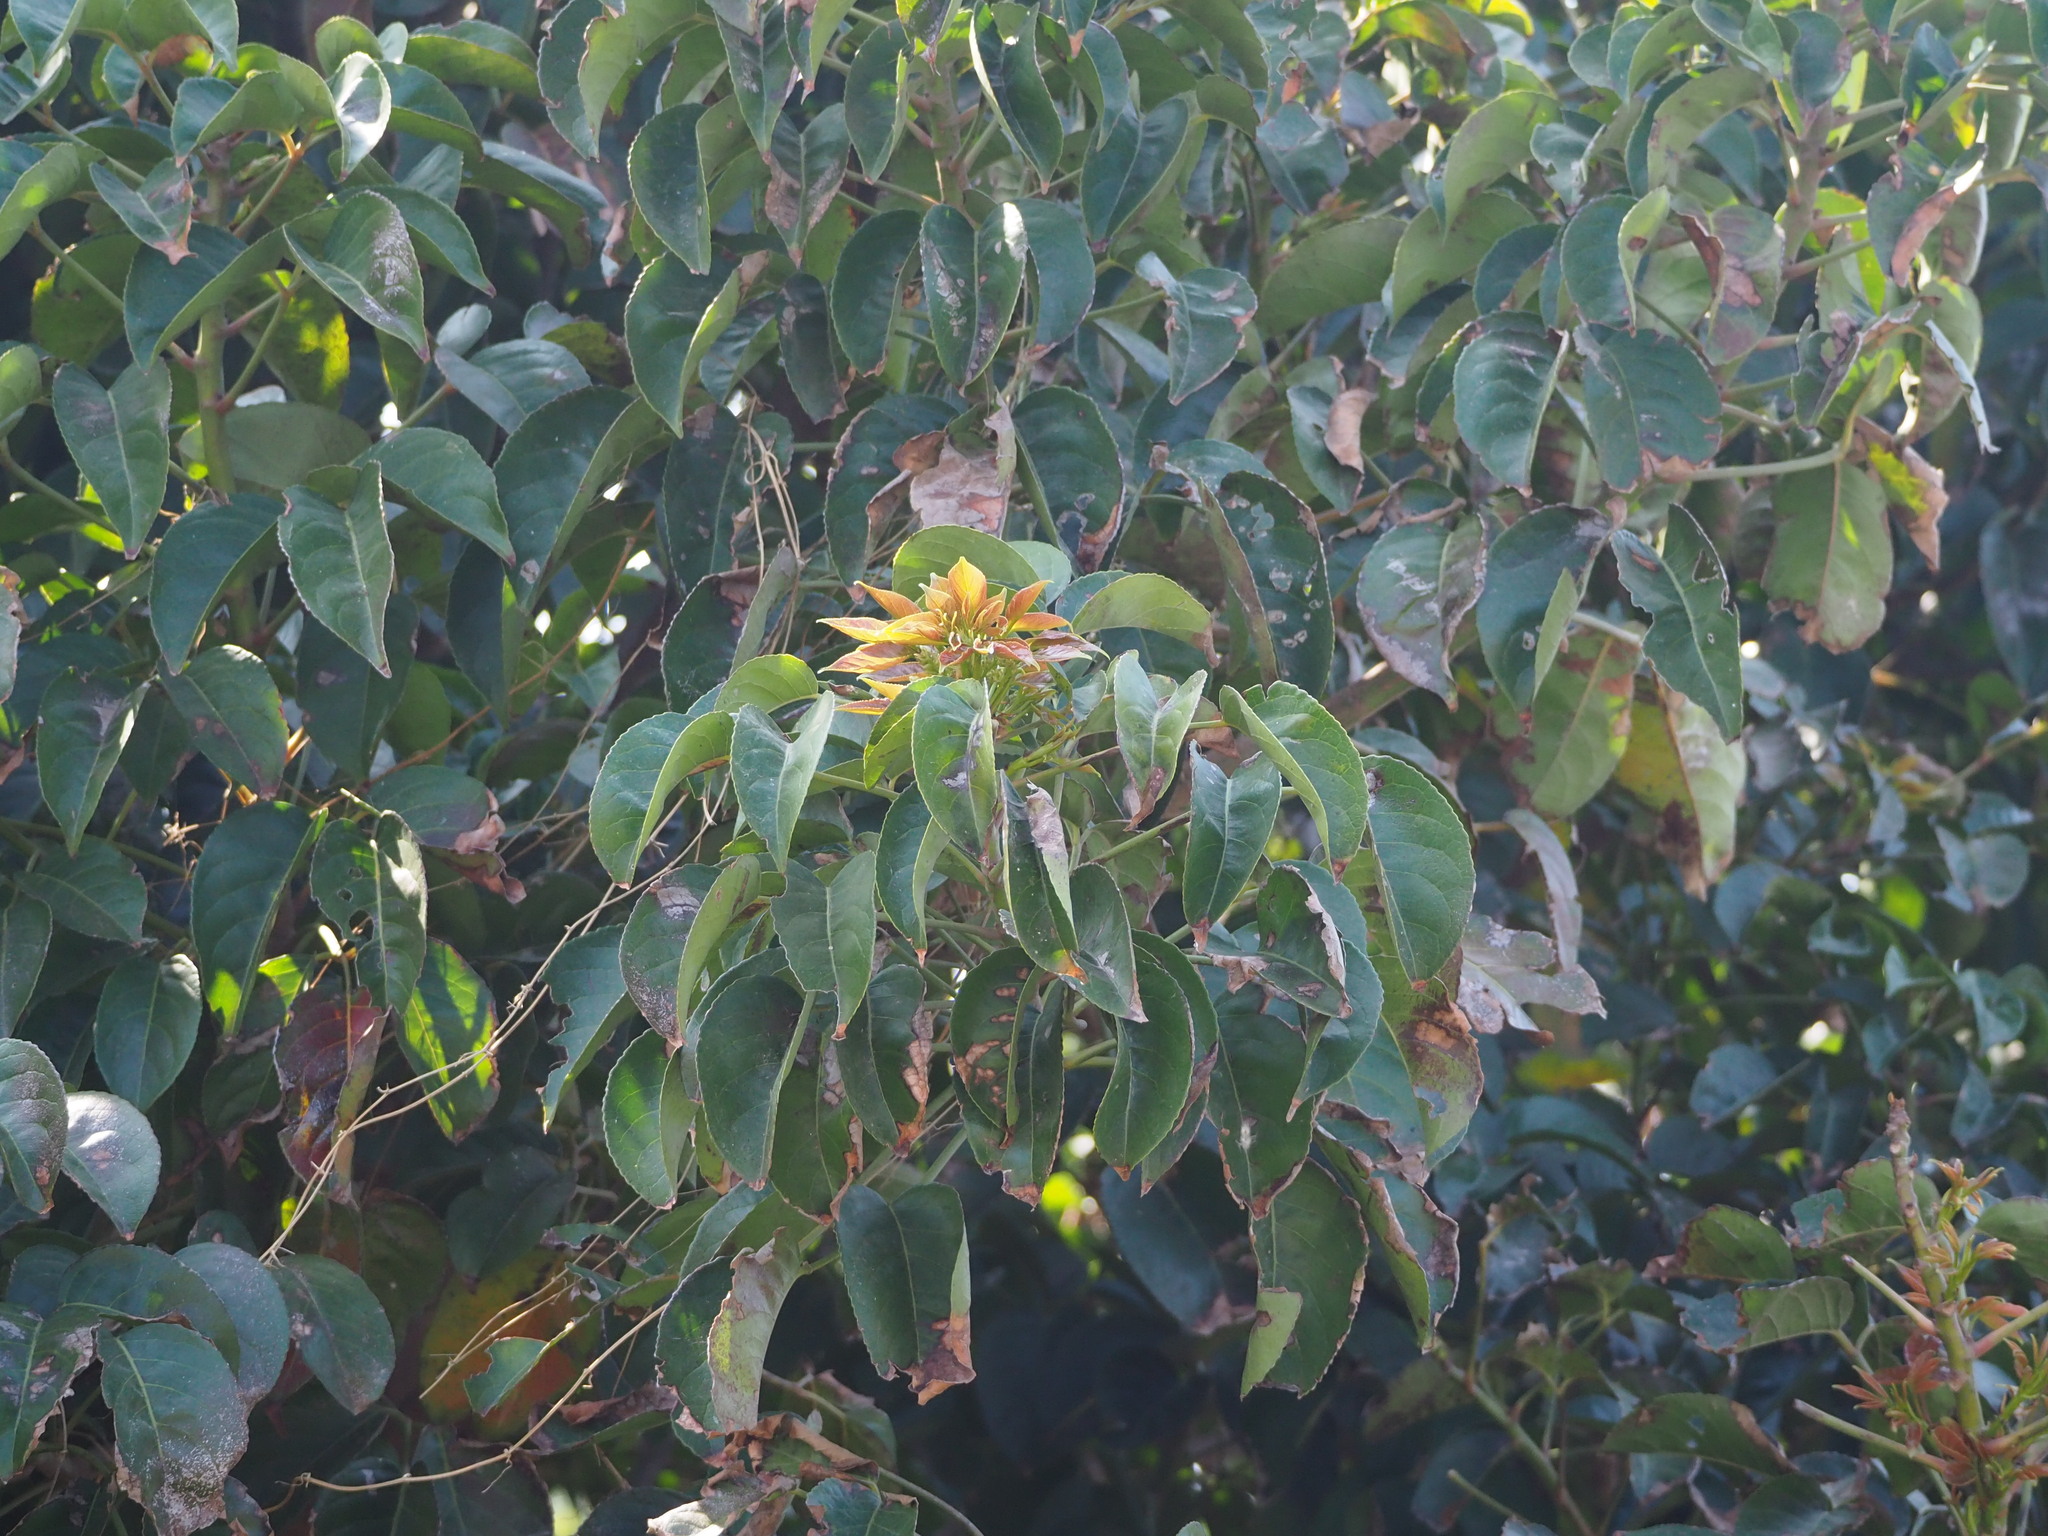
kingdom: Plantae
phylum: Tracheophyta
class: Magnoliopsida
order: Malpighiales
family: Phyllanthaceae
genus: Bischofia
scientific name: Bischofia javanica
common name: Javanese bishopwood
